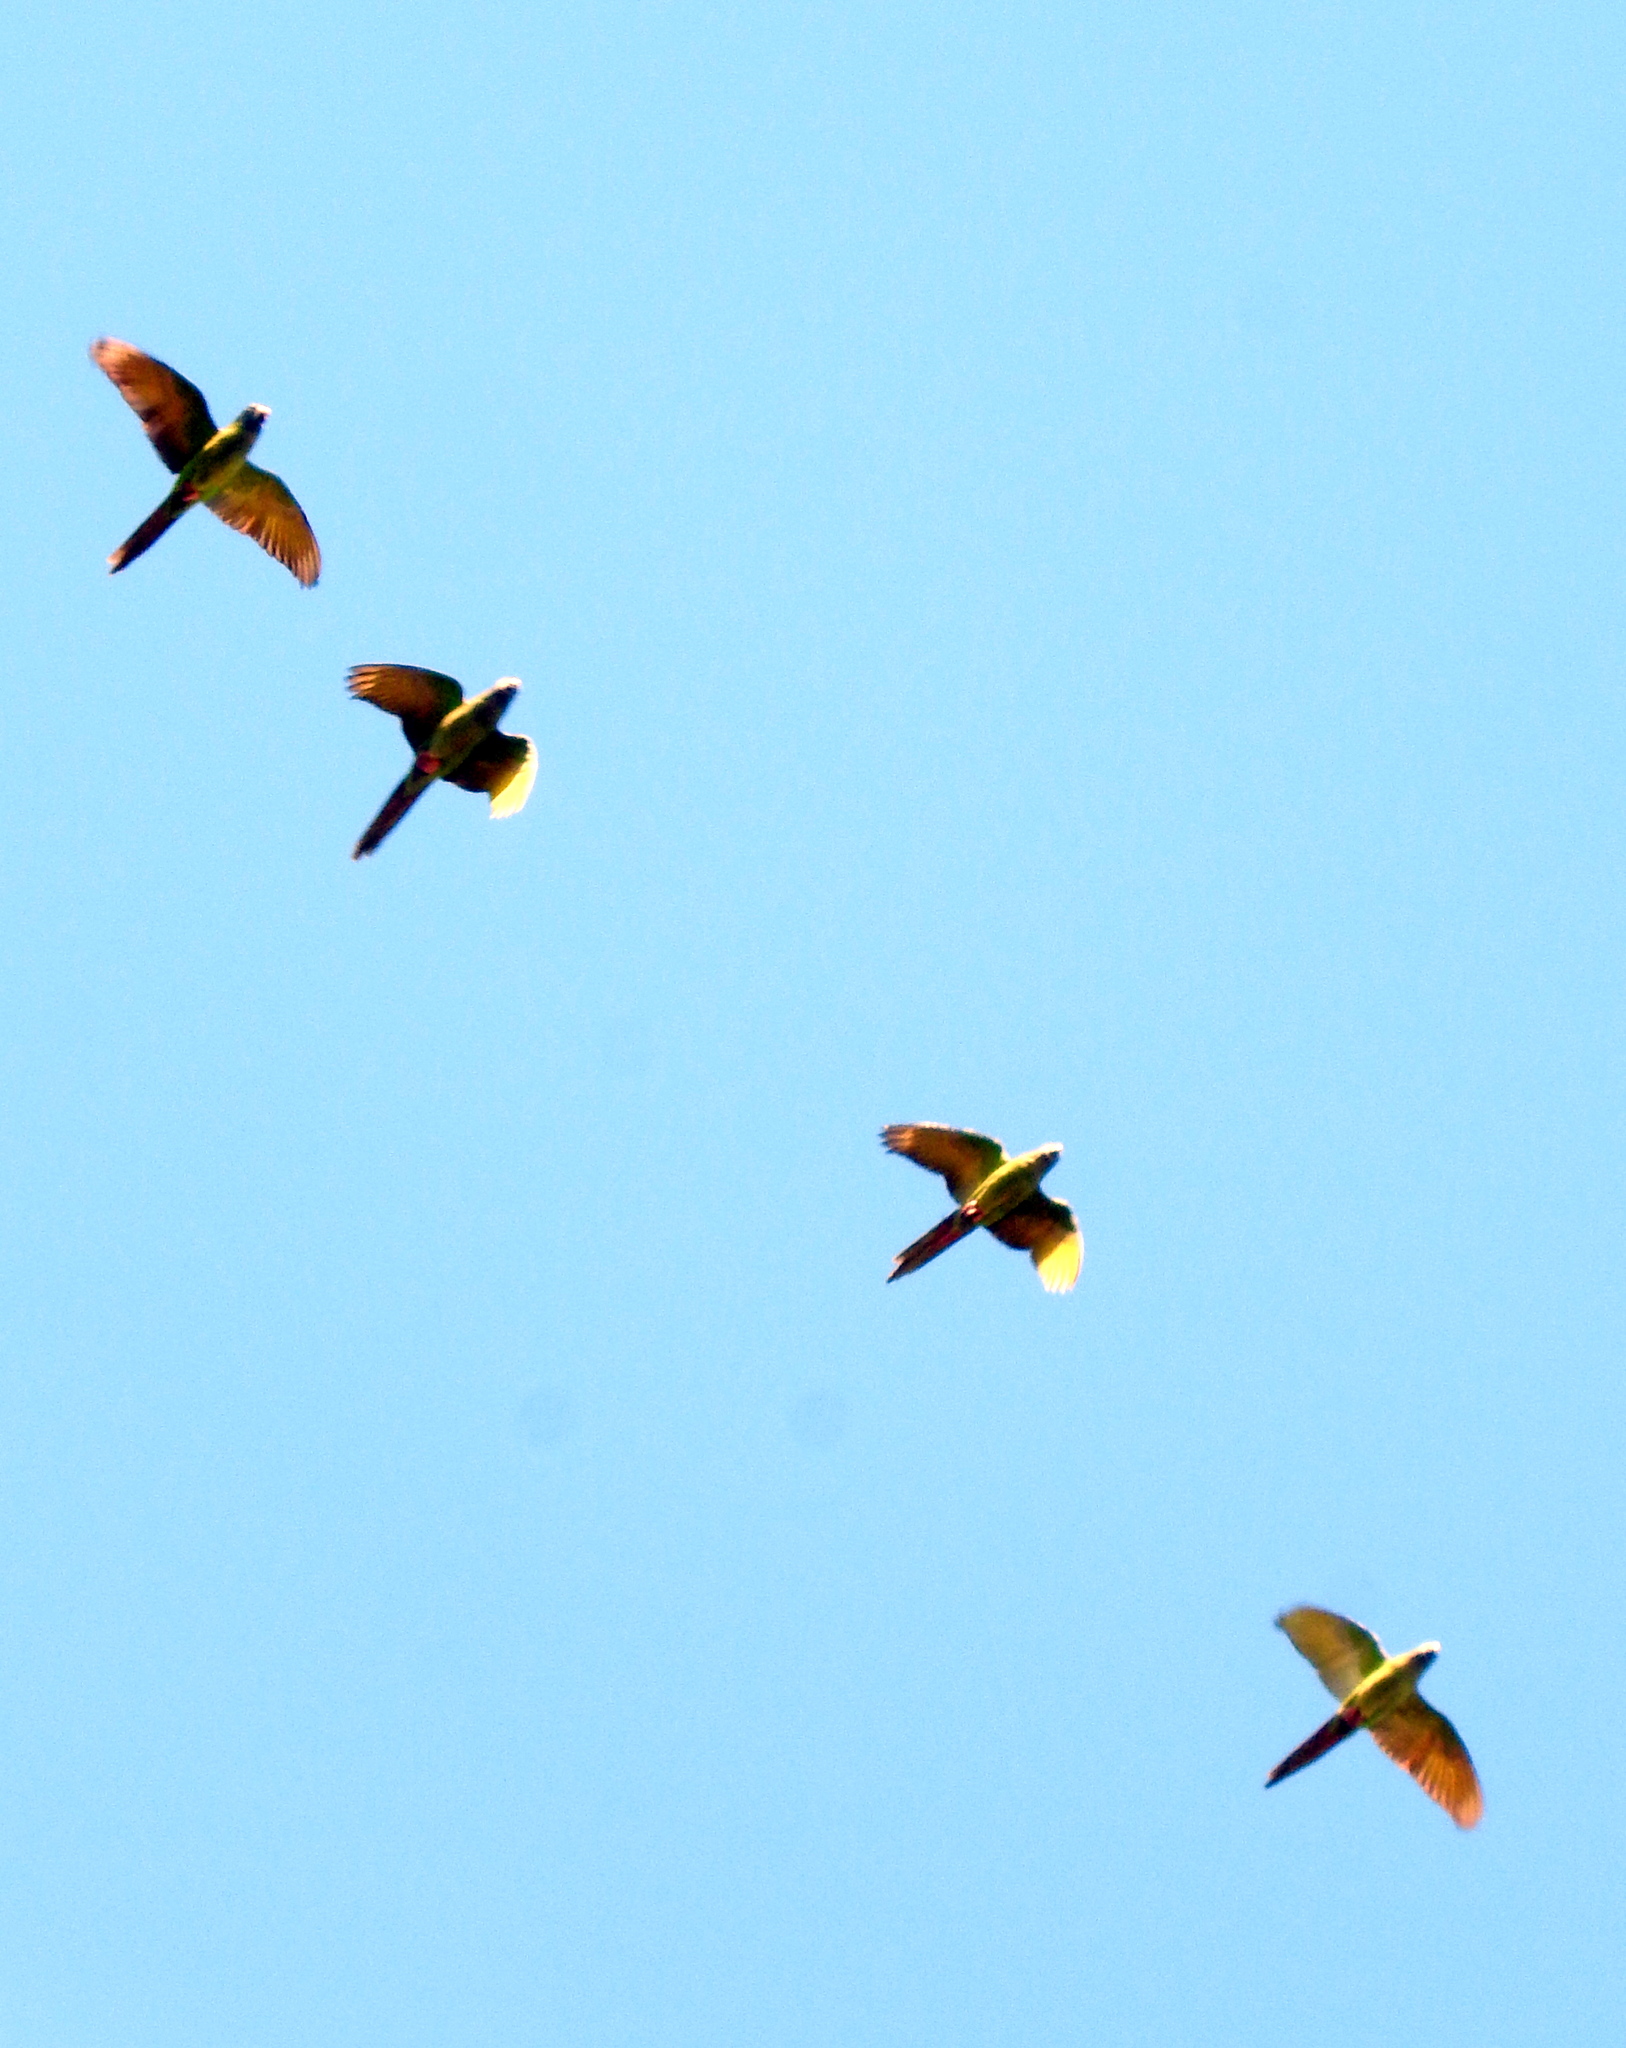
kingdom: Animalia
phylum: Chordata
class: Aves
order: Psittaciformes
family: Psittacidae
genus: Aratinga
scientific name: Aratinga acuticaudata
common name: Blue-crowned parakeet
